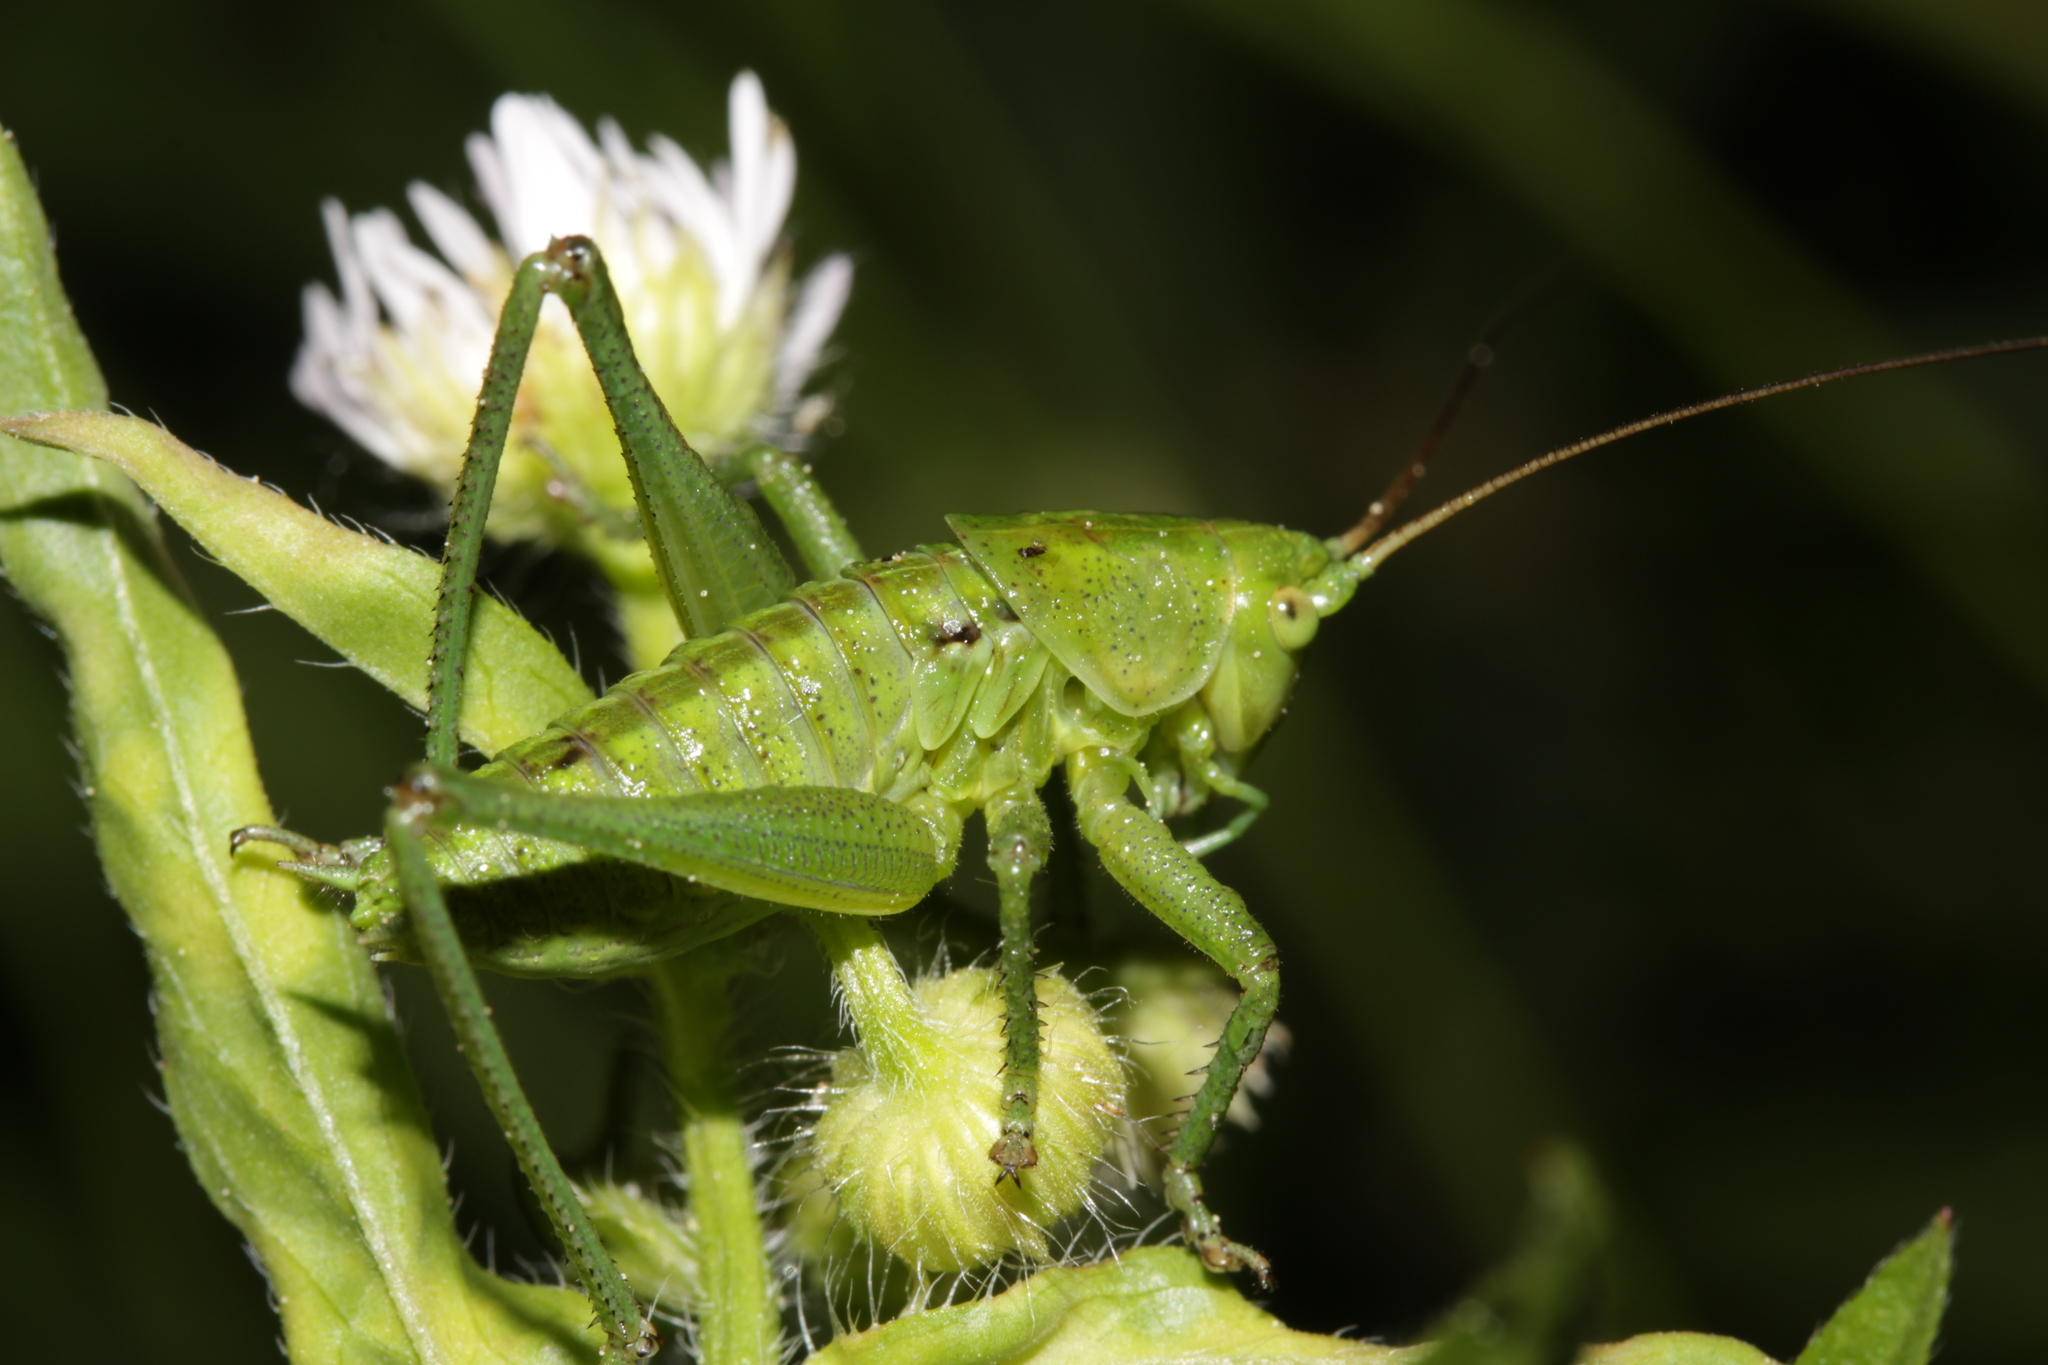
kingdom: Animalia
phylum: Arthropoda
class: Insecta
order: Orthoptera
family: Tettigoniidae
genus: Tettigonia
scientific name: Tettigonia viridissima
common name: Great green bush-cricket
